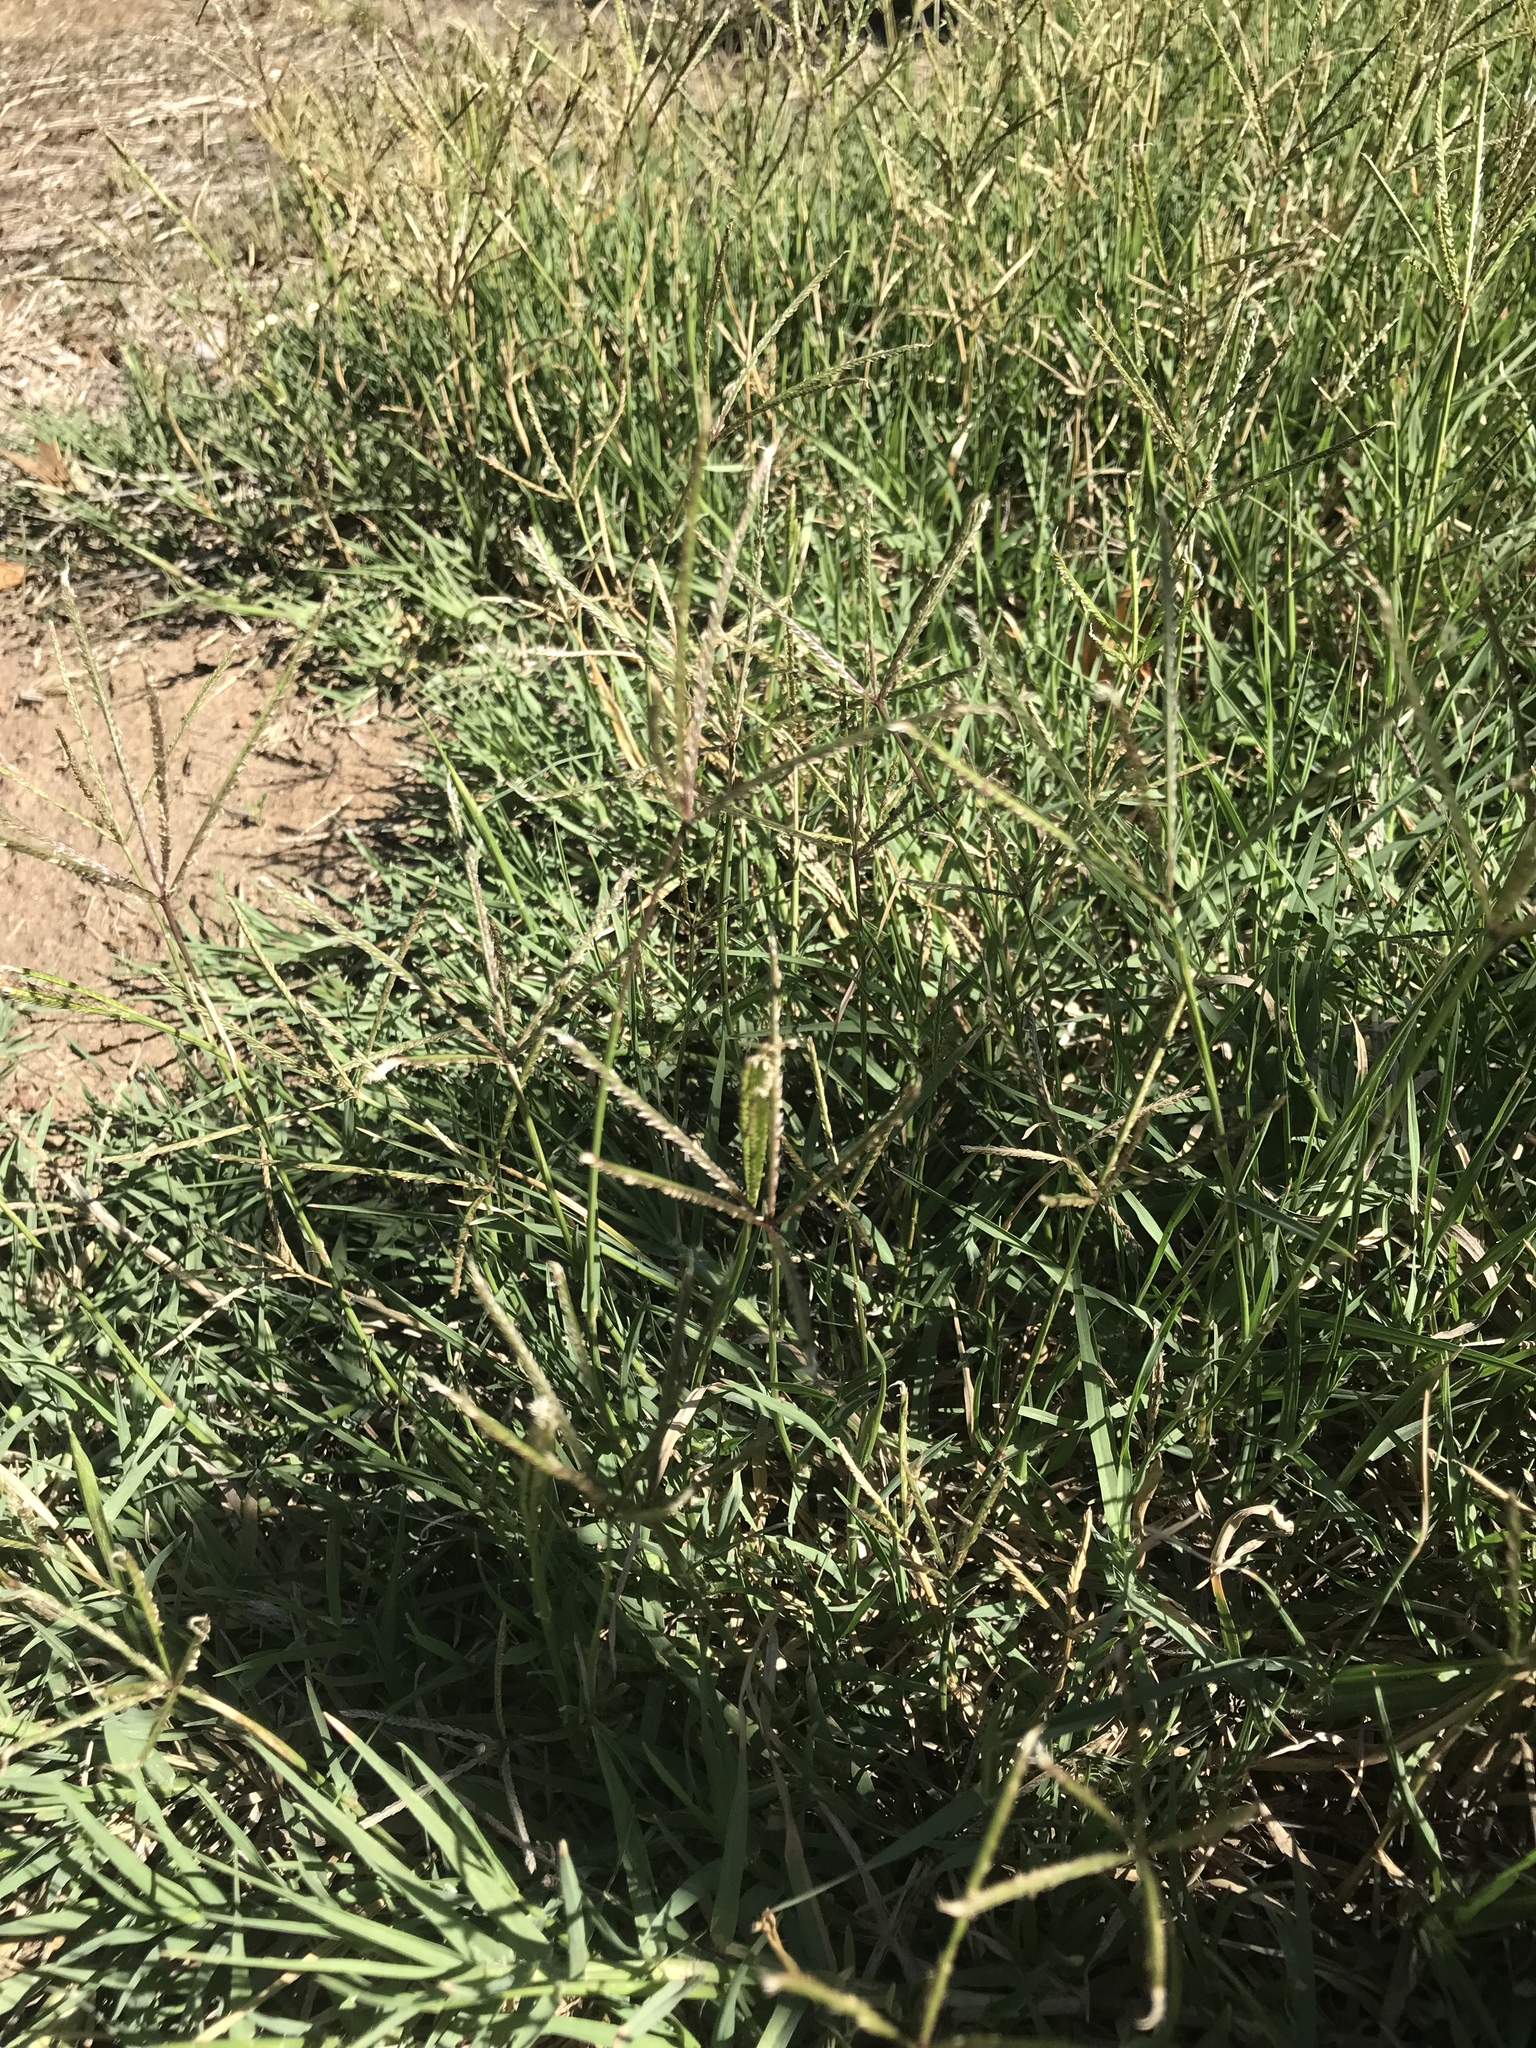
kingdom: Plantae
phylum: Tracheophyta
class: Liliopsida
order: Poales
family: Poaceae
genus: Cynodon
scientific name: Cynodon dactylon
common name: Bermuda grass
